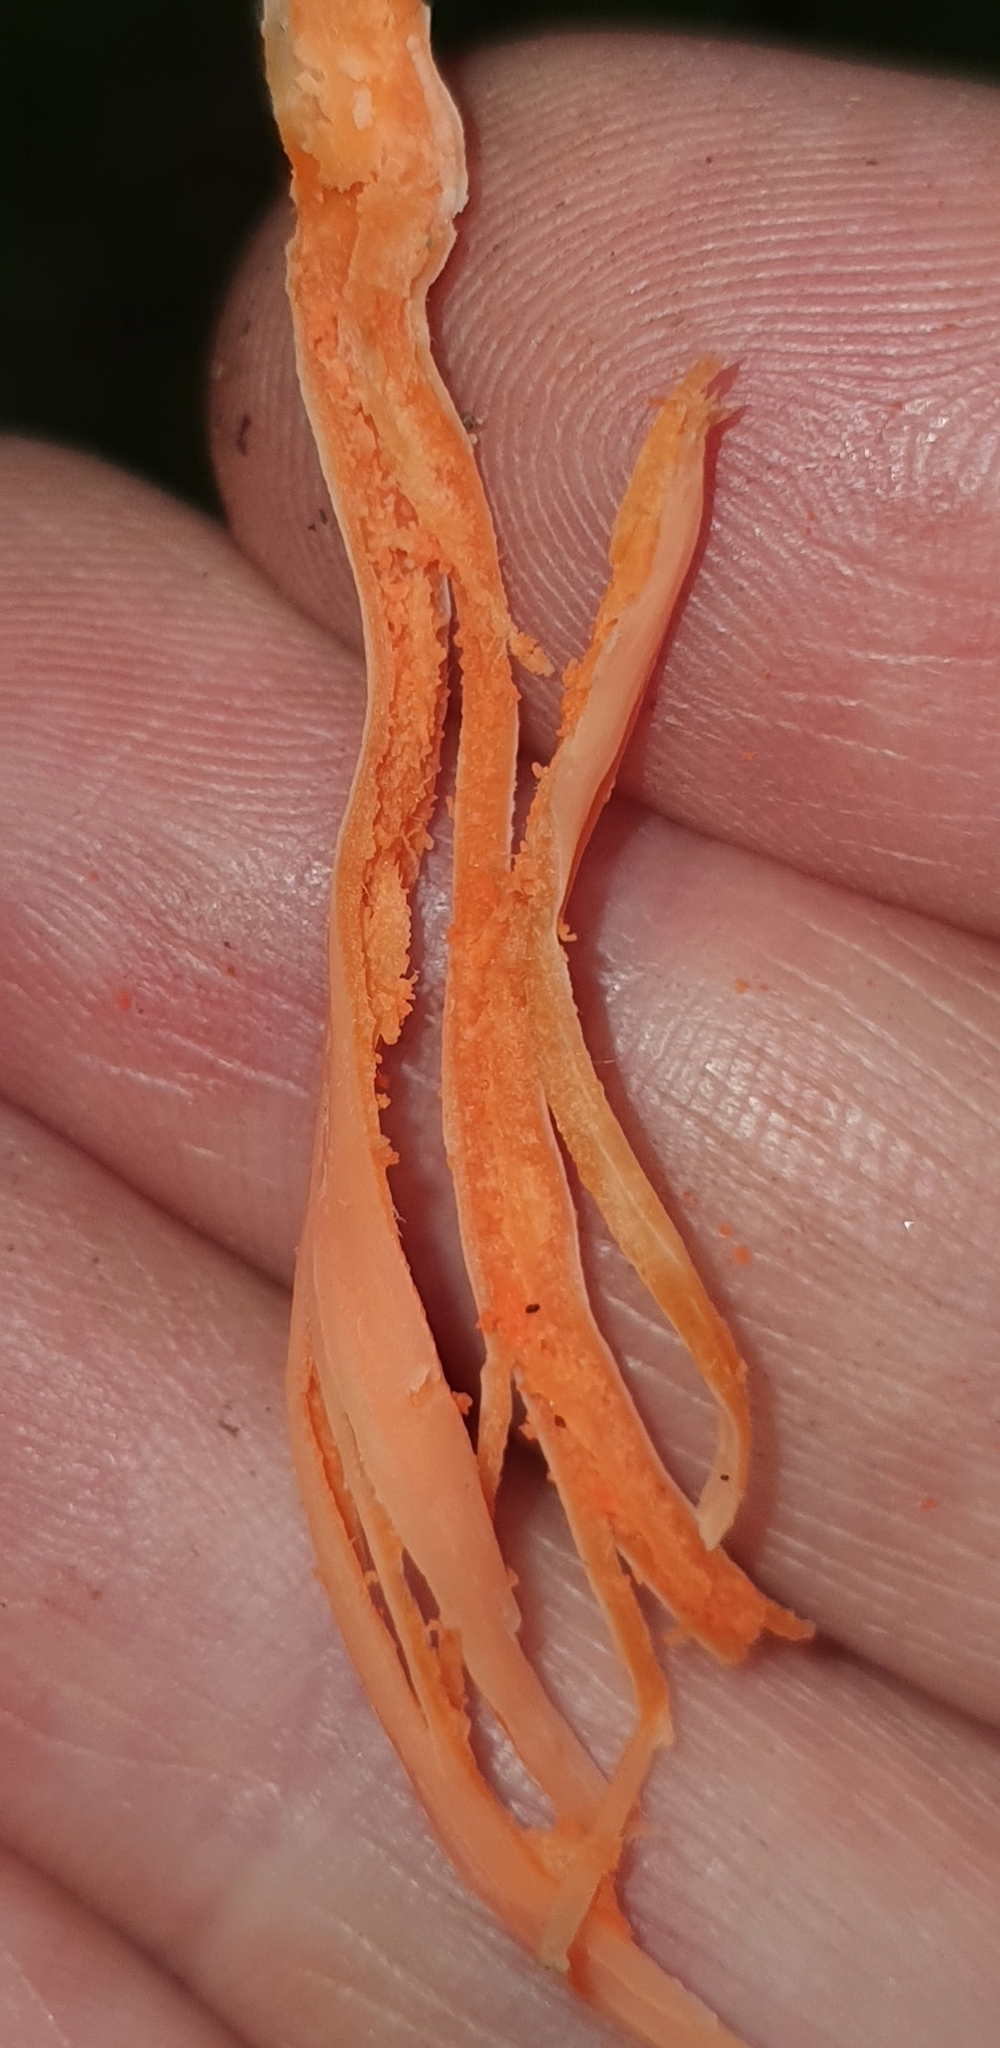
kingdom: Fungi
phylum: Basidiomycota
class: Agaricomycetes
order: Agaricales
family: Clavariaceae
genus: Clavulinopsis
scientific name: Clavulinopsis sulcata
